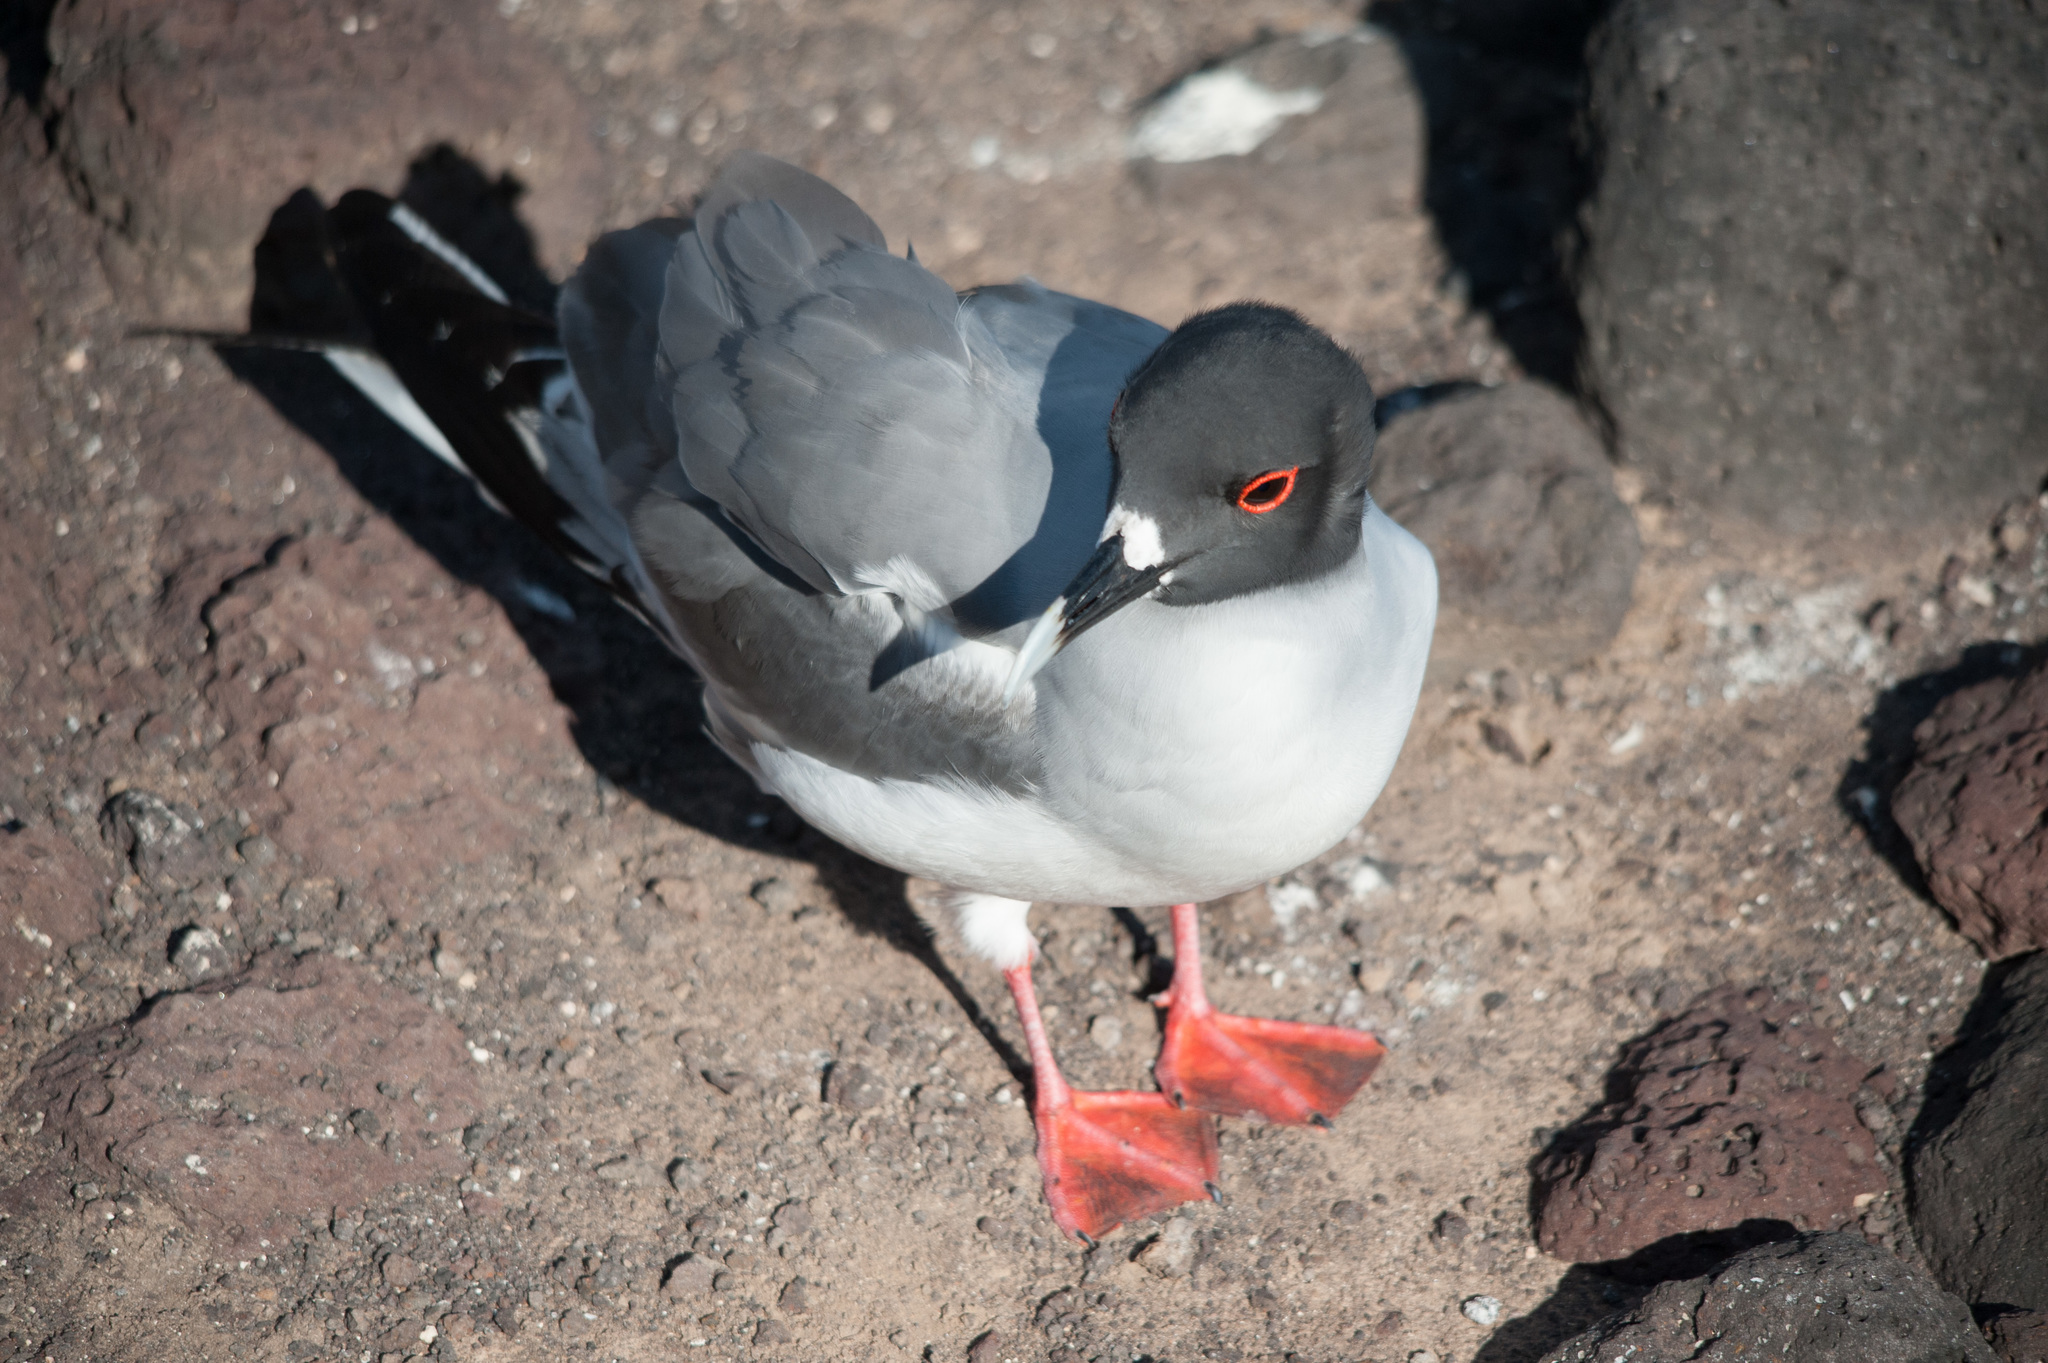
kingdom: Animalia
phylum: Chordata
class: Aves
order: Charadriiformes
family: Laridae
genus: Creagrus
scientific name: Creagrus furcatus
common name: Swallow-tailed gull
